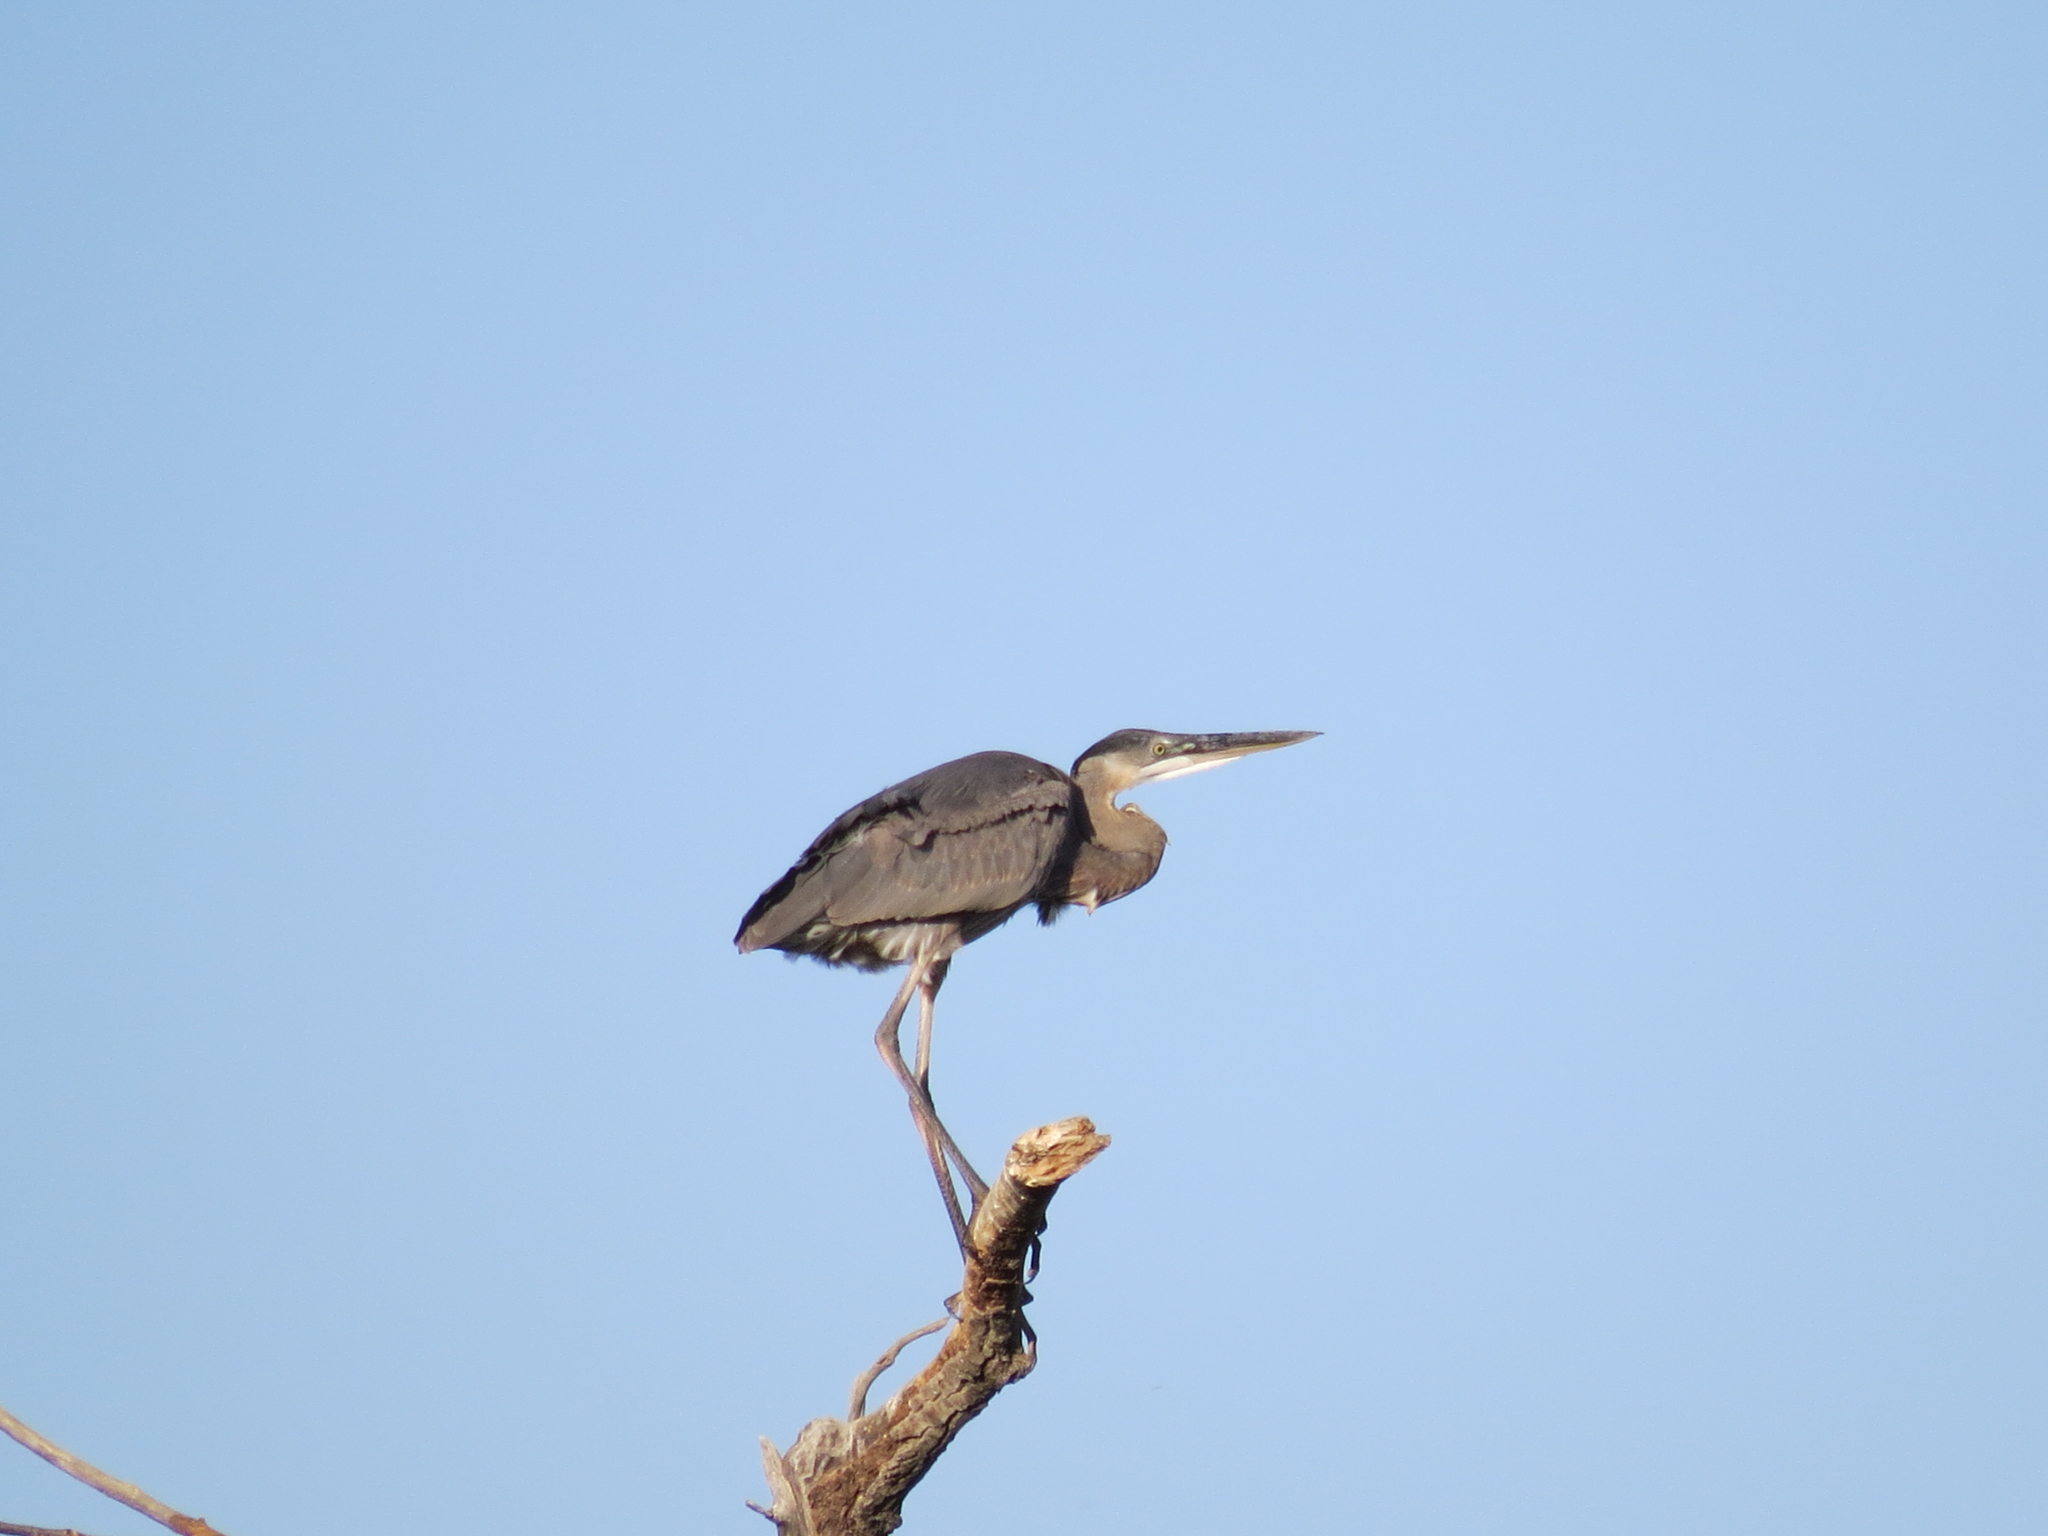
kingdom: Animalia
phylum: Chordata
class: Aves
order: Pelecaniformes
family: Ardeidae
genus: Ardea
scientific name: Ardea herodias
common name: Great blue heron
